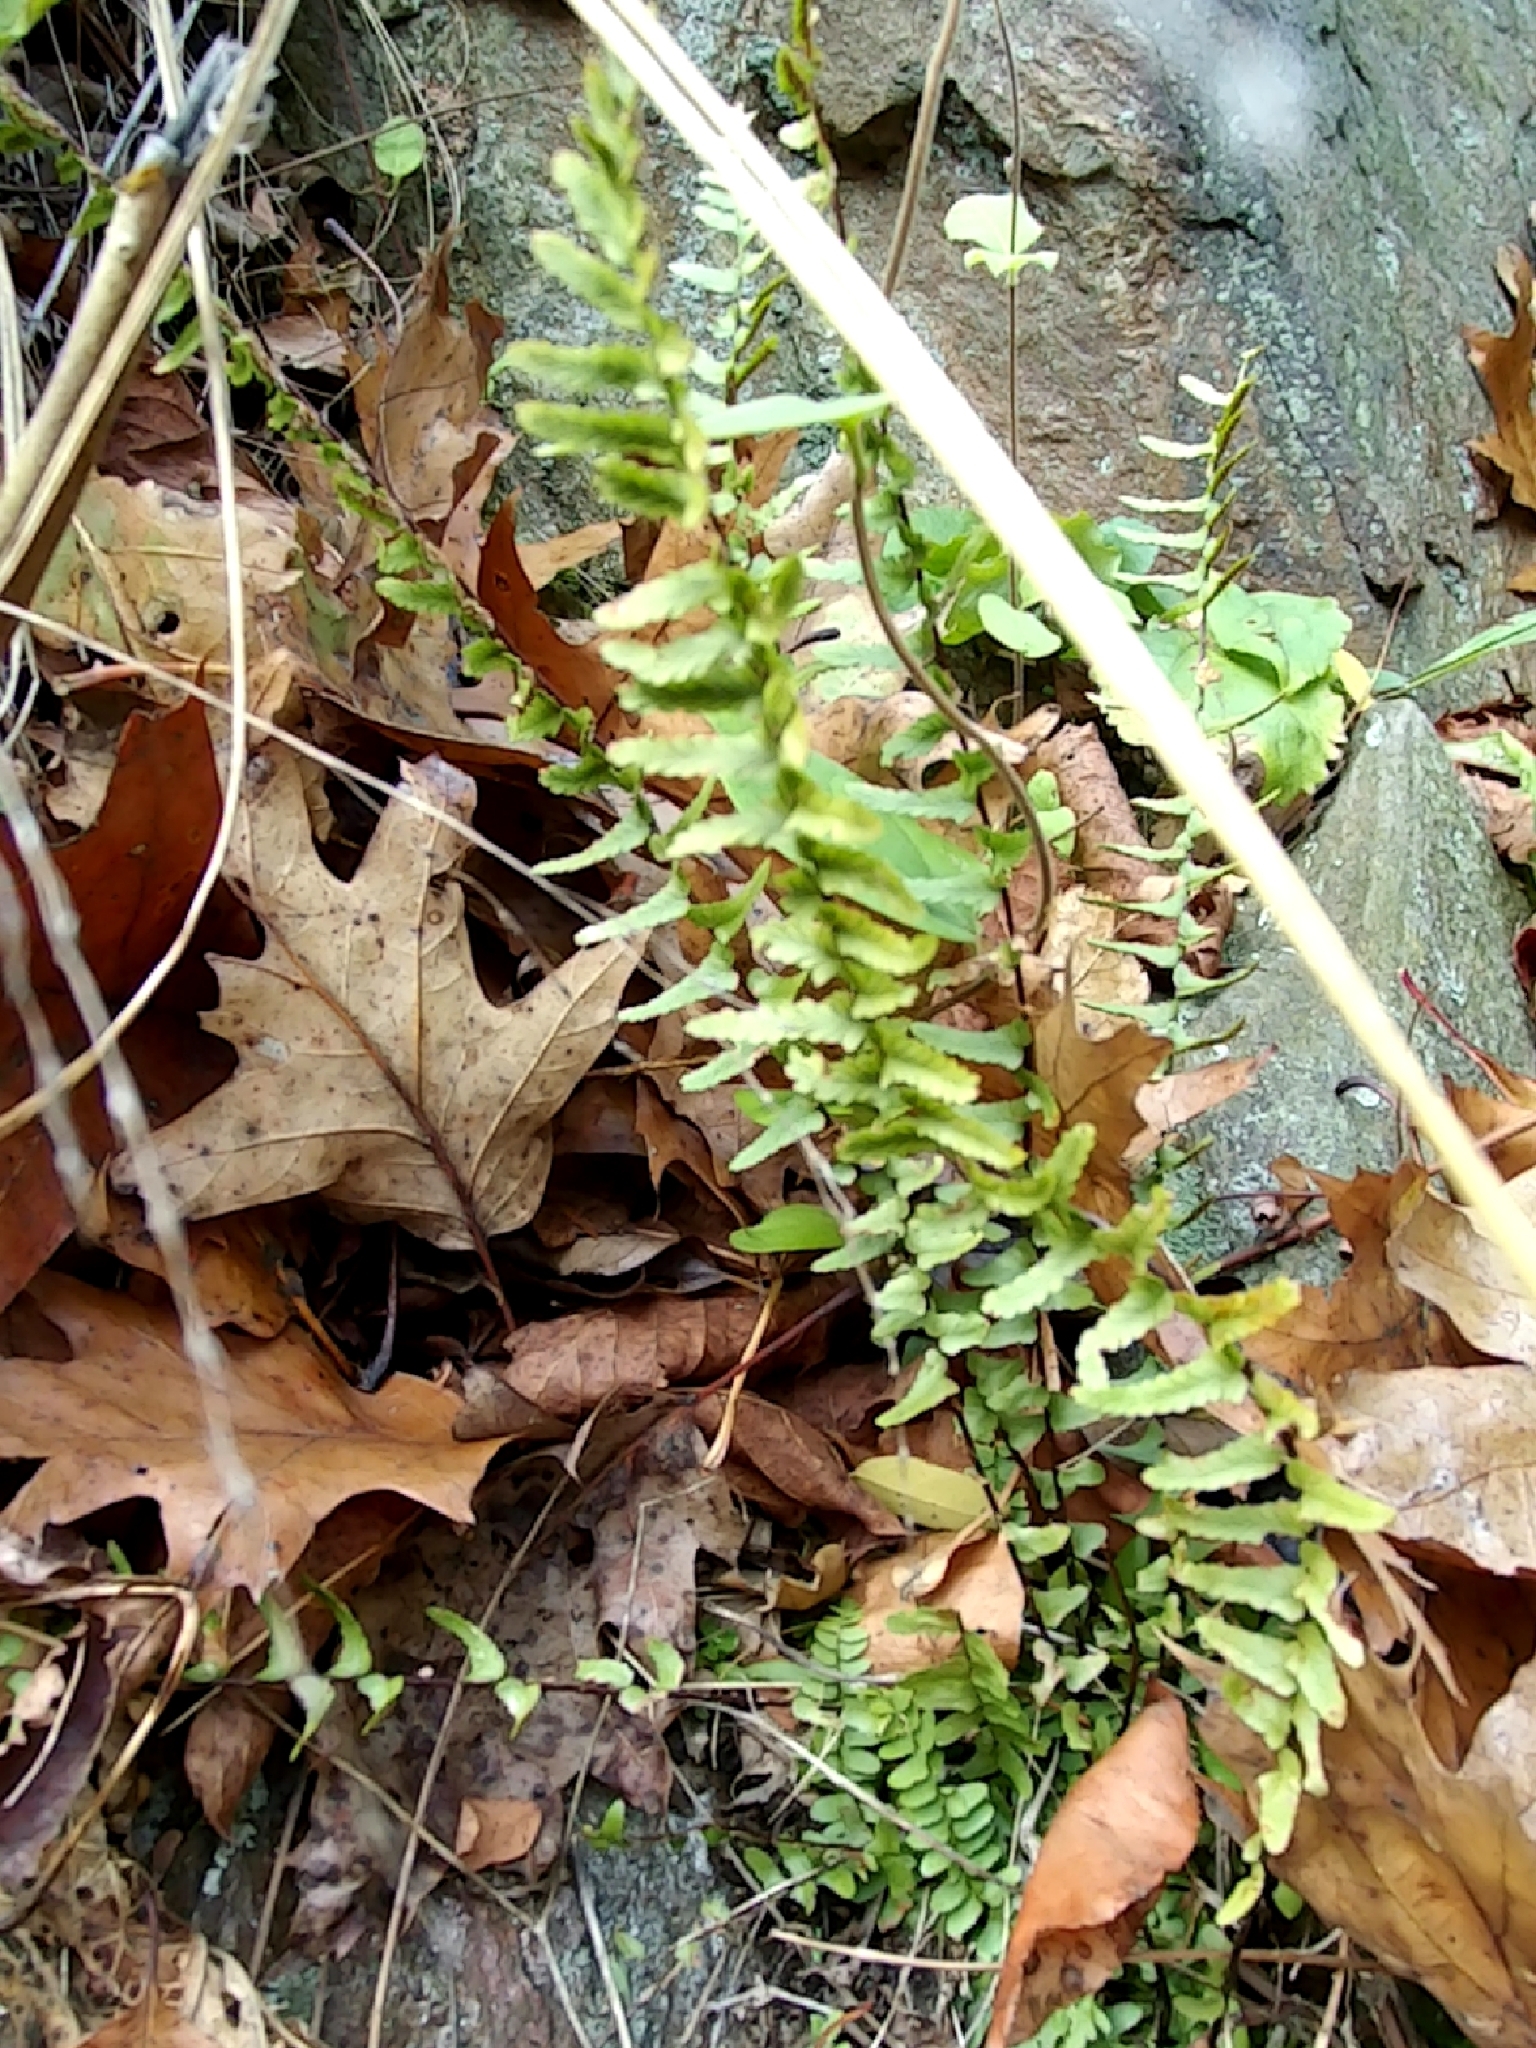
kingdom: Plantae
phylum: Tracheophyta
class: Polypodiopsida
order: Polypodiales
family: Aspleniaceae
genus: Asplenium
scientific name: Asplenium platyneuron
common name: Ebony spleenwort
